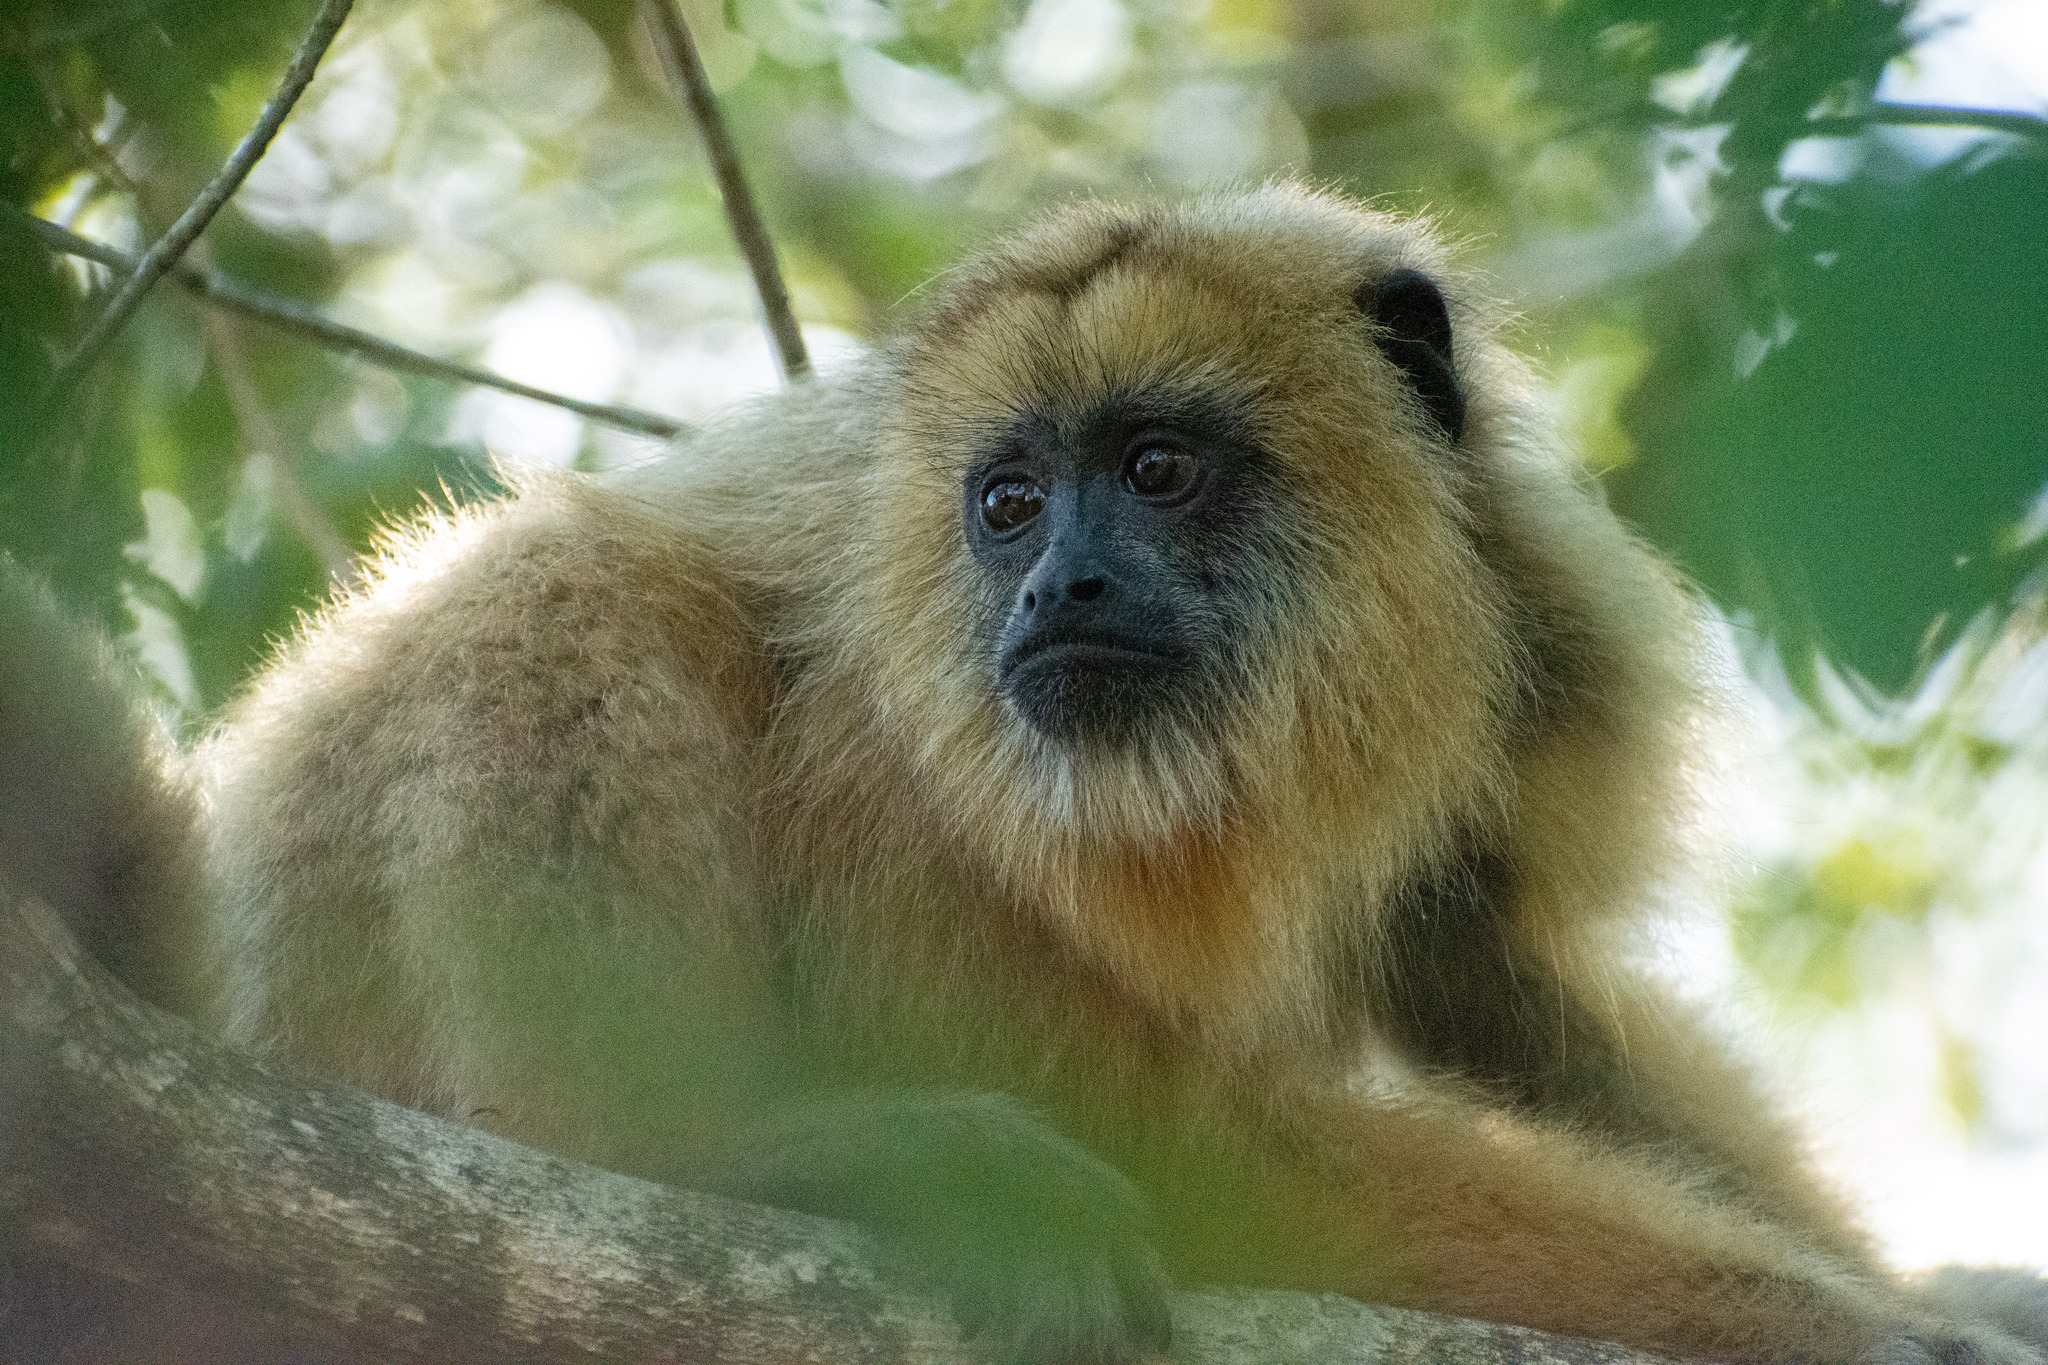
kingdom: Animalia
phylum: Chordata
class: Mammalia
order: Primates
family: Atelidae
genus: Alouatta
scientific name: Alouatta caraya
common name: Black howler
